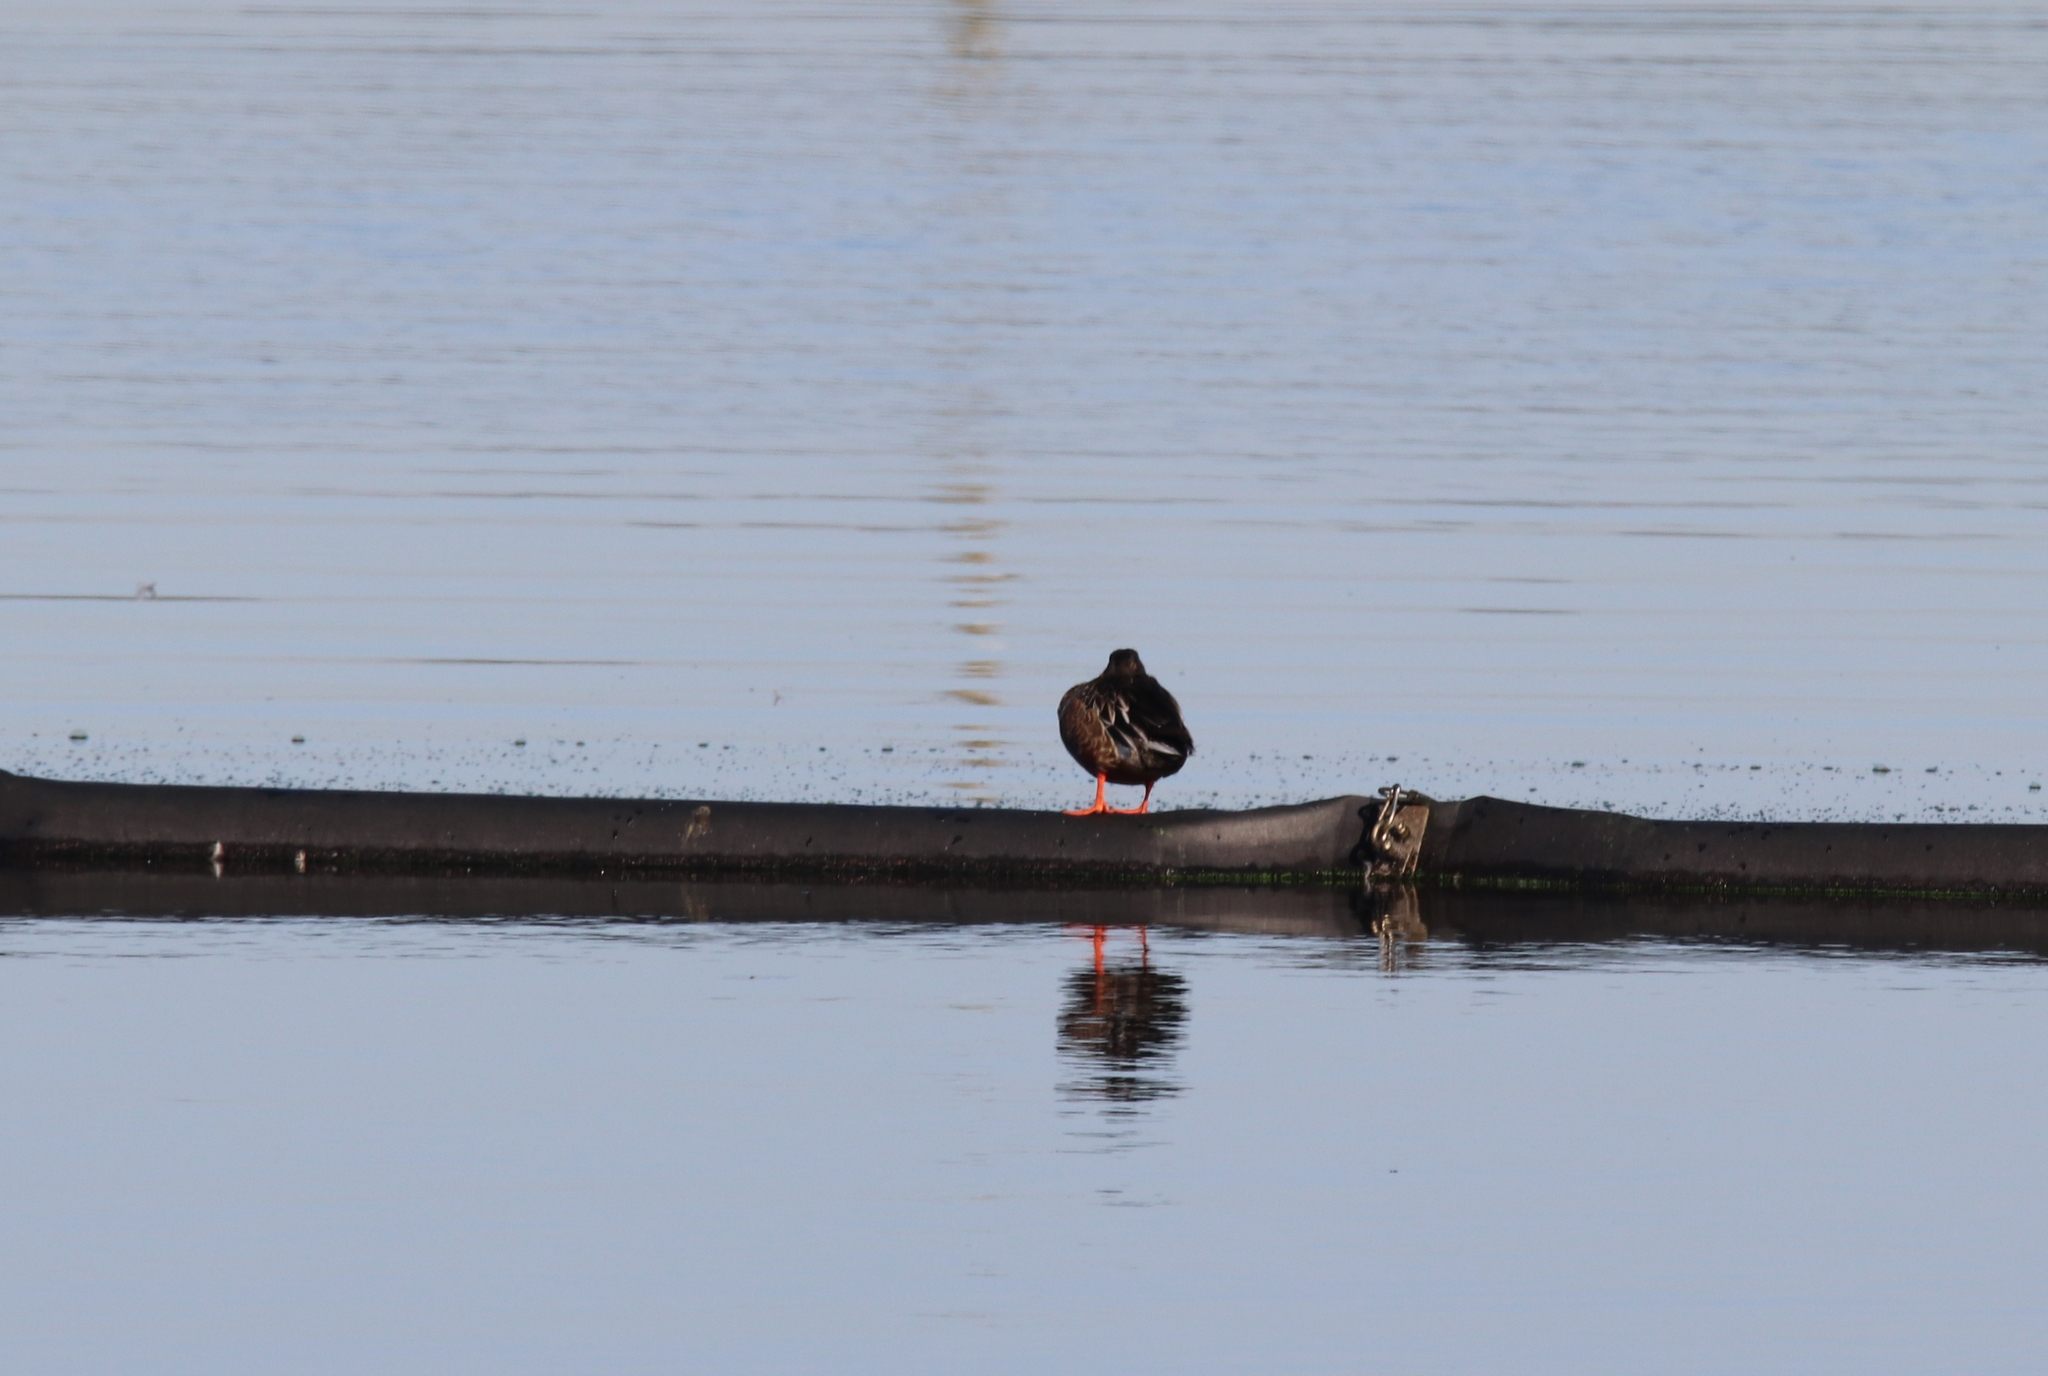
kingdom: Animalia
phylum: Chordata
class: Aves
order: Anseriformes
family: Anatidae
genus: Spatula
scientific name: Spatula clypeata
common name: Northern shoveler
